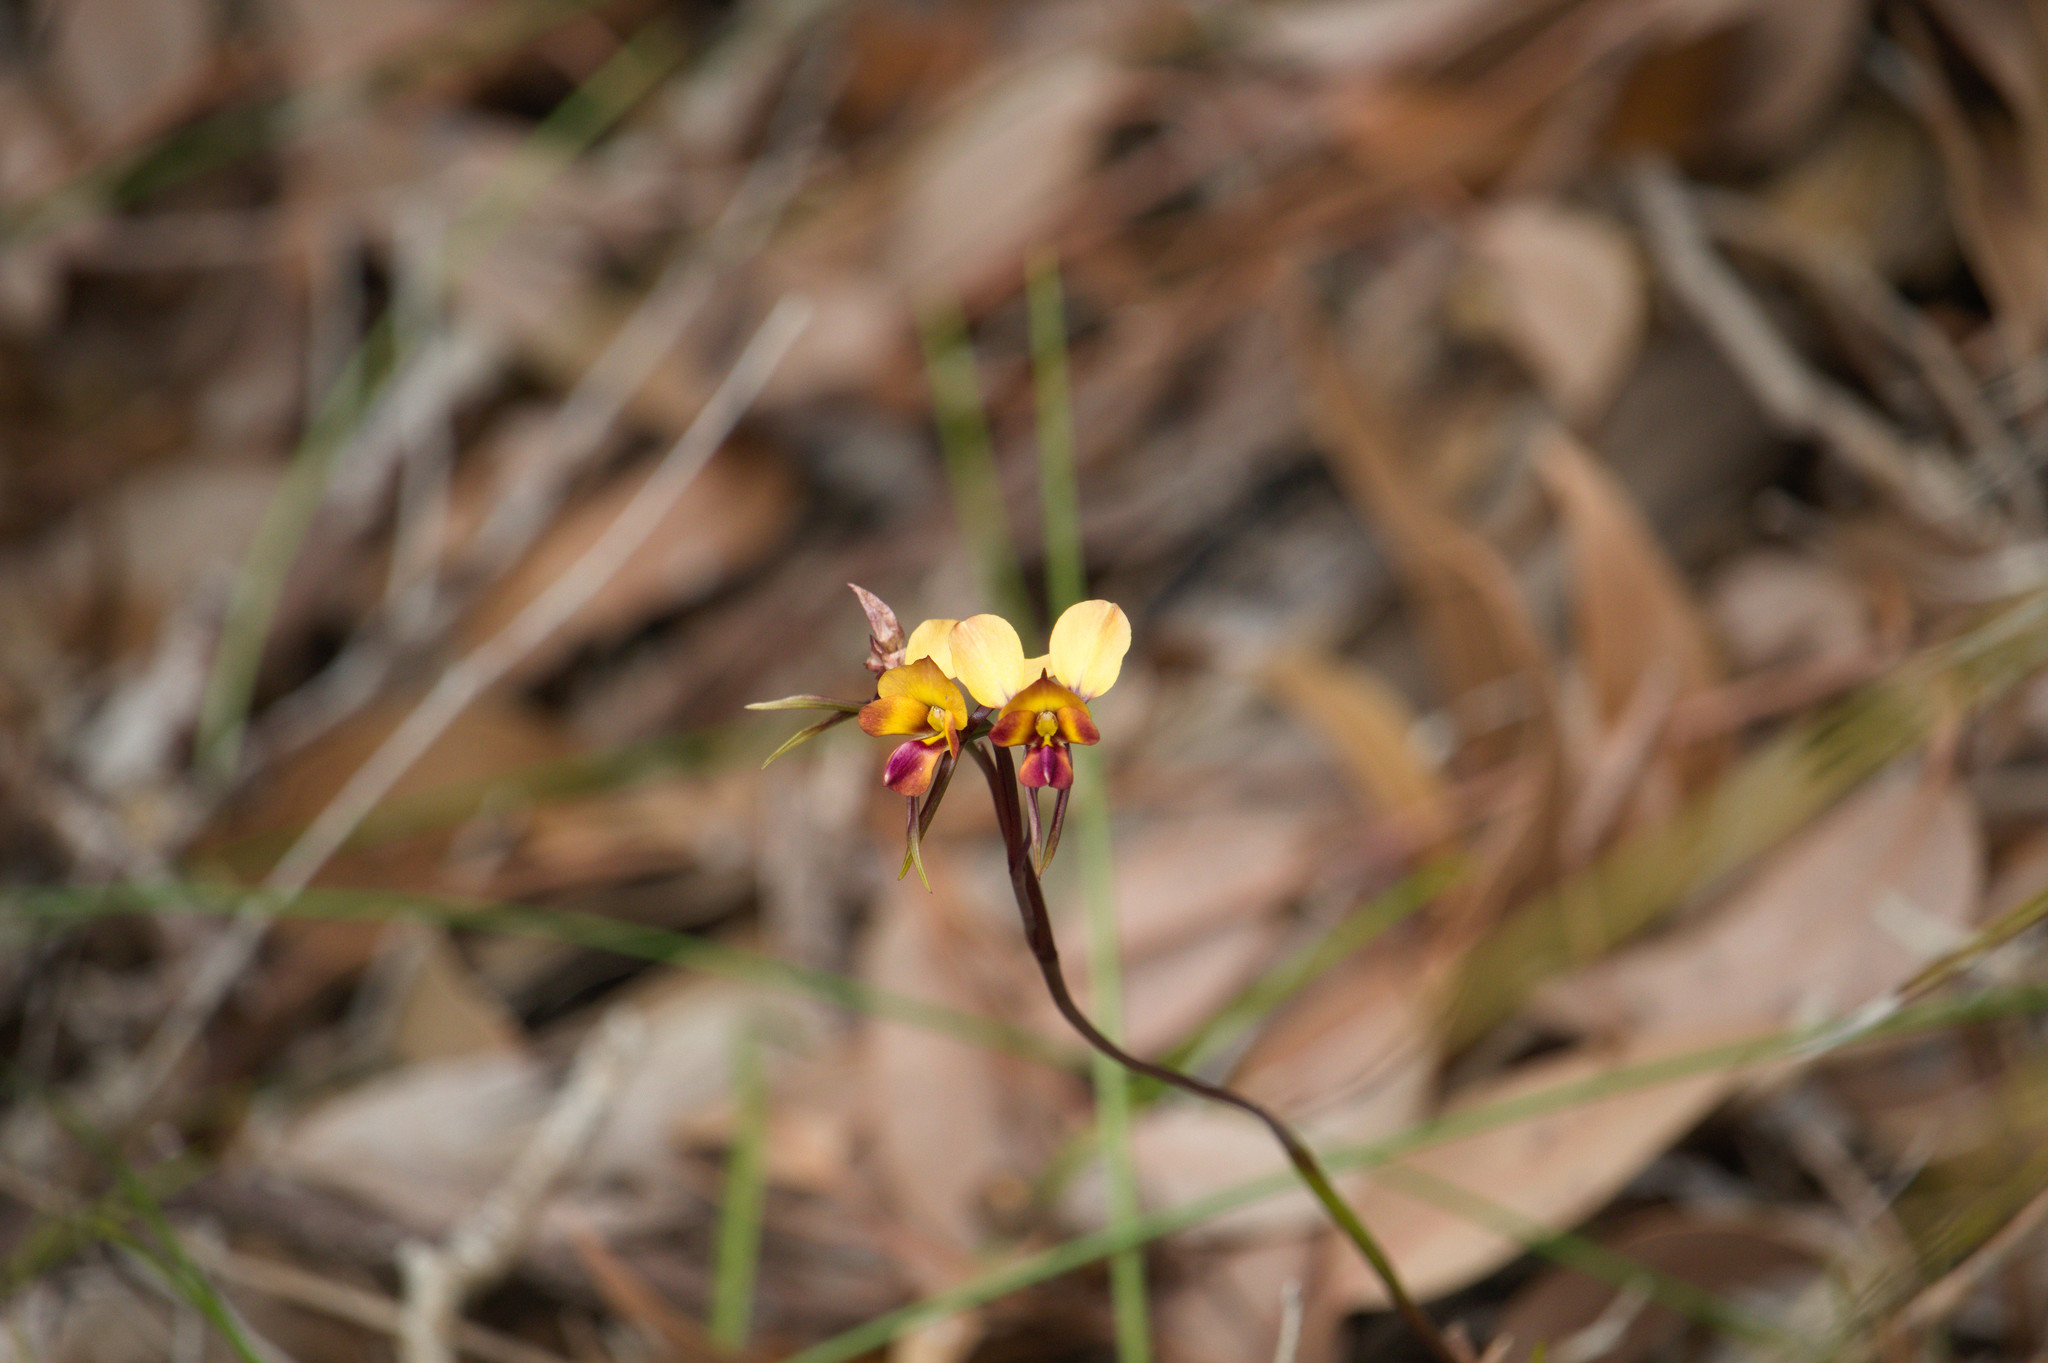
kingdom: Plantae
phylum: Tracheophyta
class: Liliopsida
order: Asparagales
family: Orchidaceae
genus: Diuris
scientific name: Diuris corymbosa
